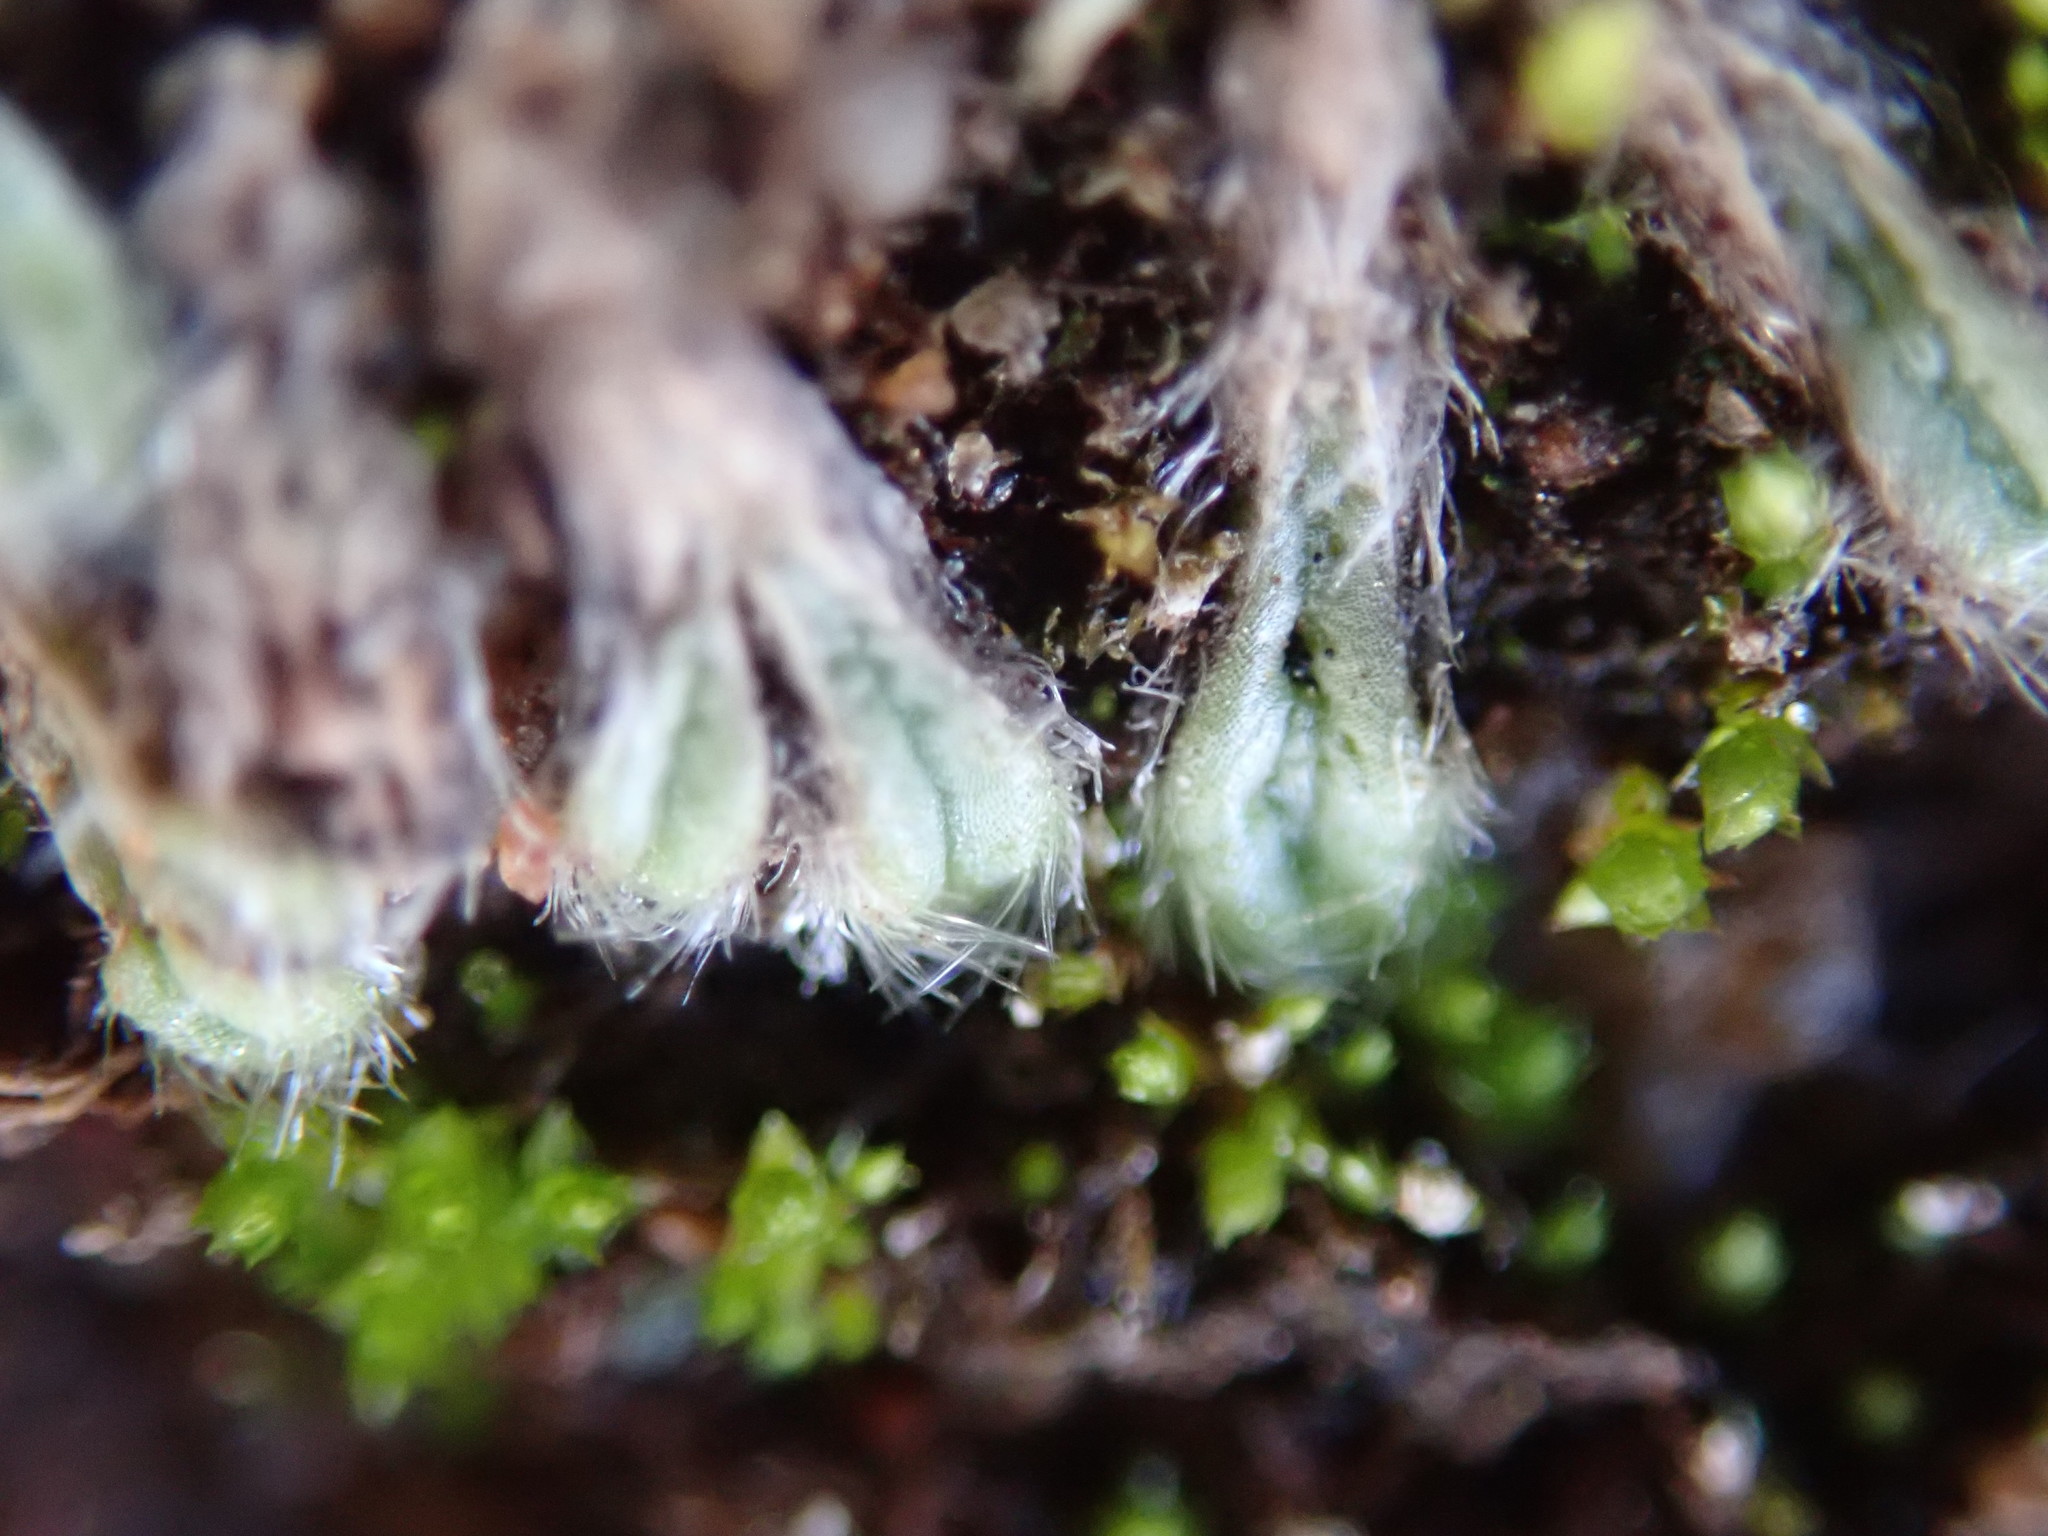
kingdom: Plantae
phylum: Marchantiophyta
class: Marchantiopsida
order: Marchantiales
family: Ricciaceae
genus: Riccia
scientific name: Riccia trichocarpa
